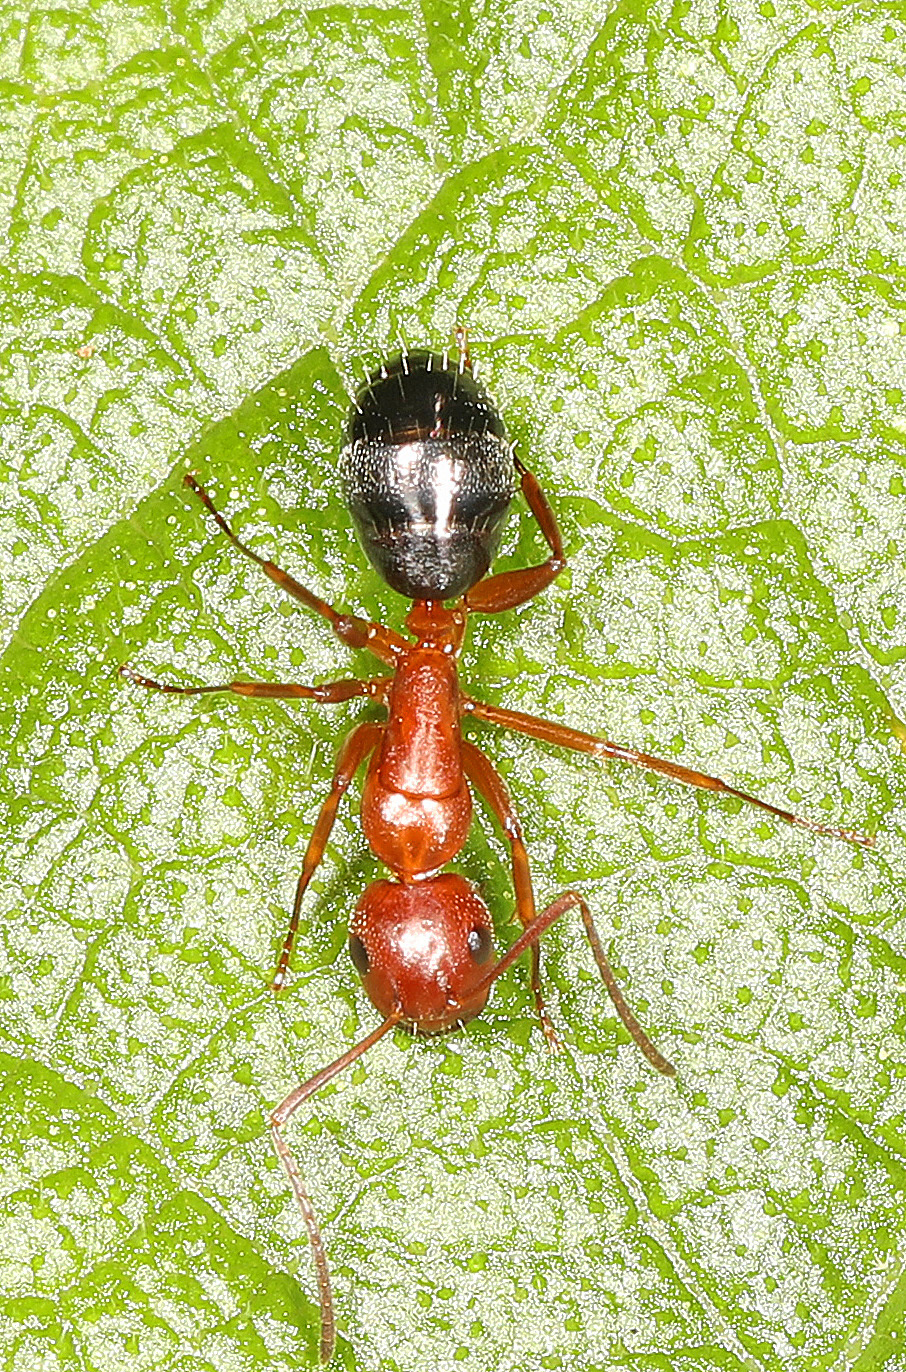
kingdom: Animalia
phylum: Arthropoda
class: Insecta
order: Hymenoptera
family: Formicidae
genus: Camponotus
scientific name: Camponotus decipiens
